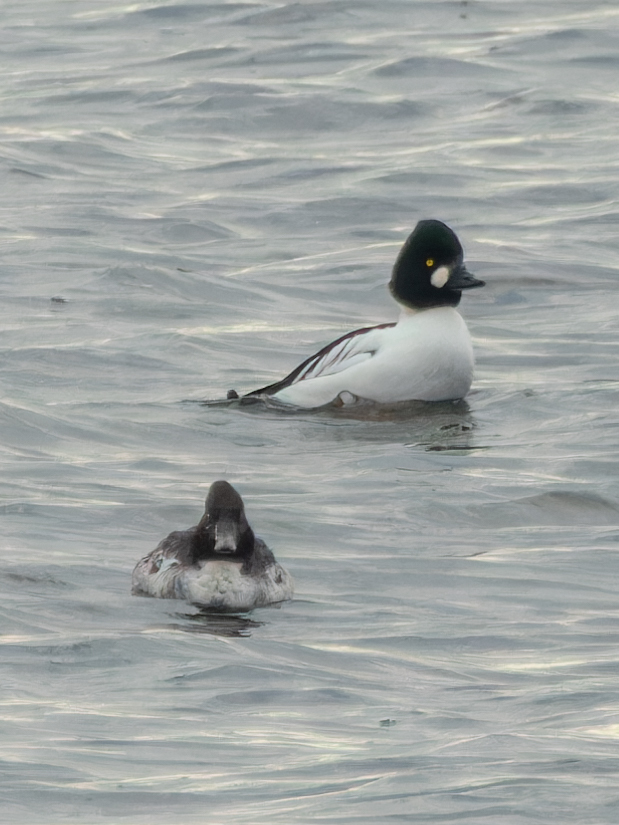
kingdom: Animalia
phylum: Chordata
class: Aves
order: Anseriformes
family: Anatidae
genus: Bucephala
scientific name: Bucephala clangula
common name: Common goldeneye
